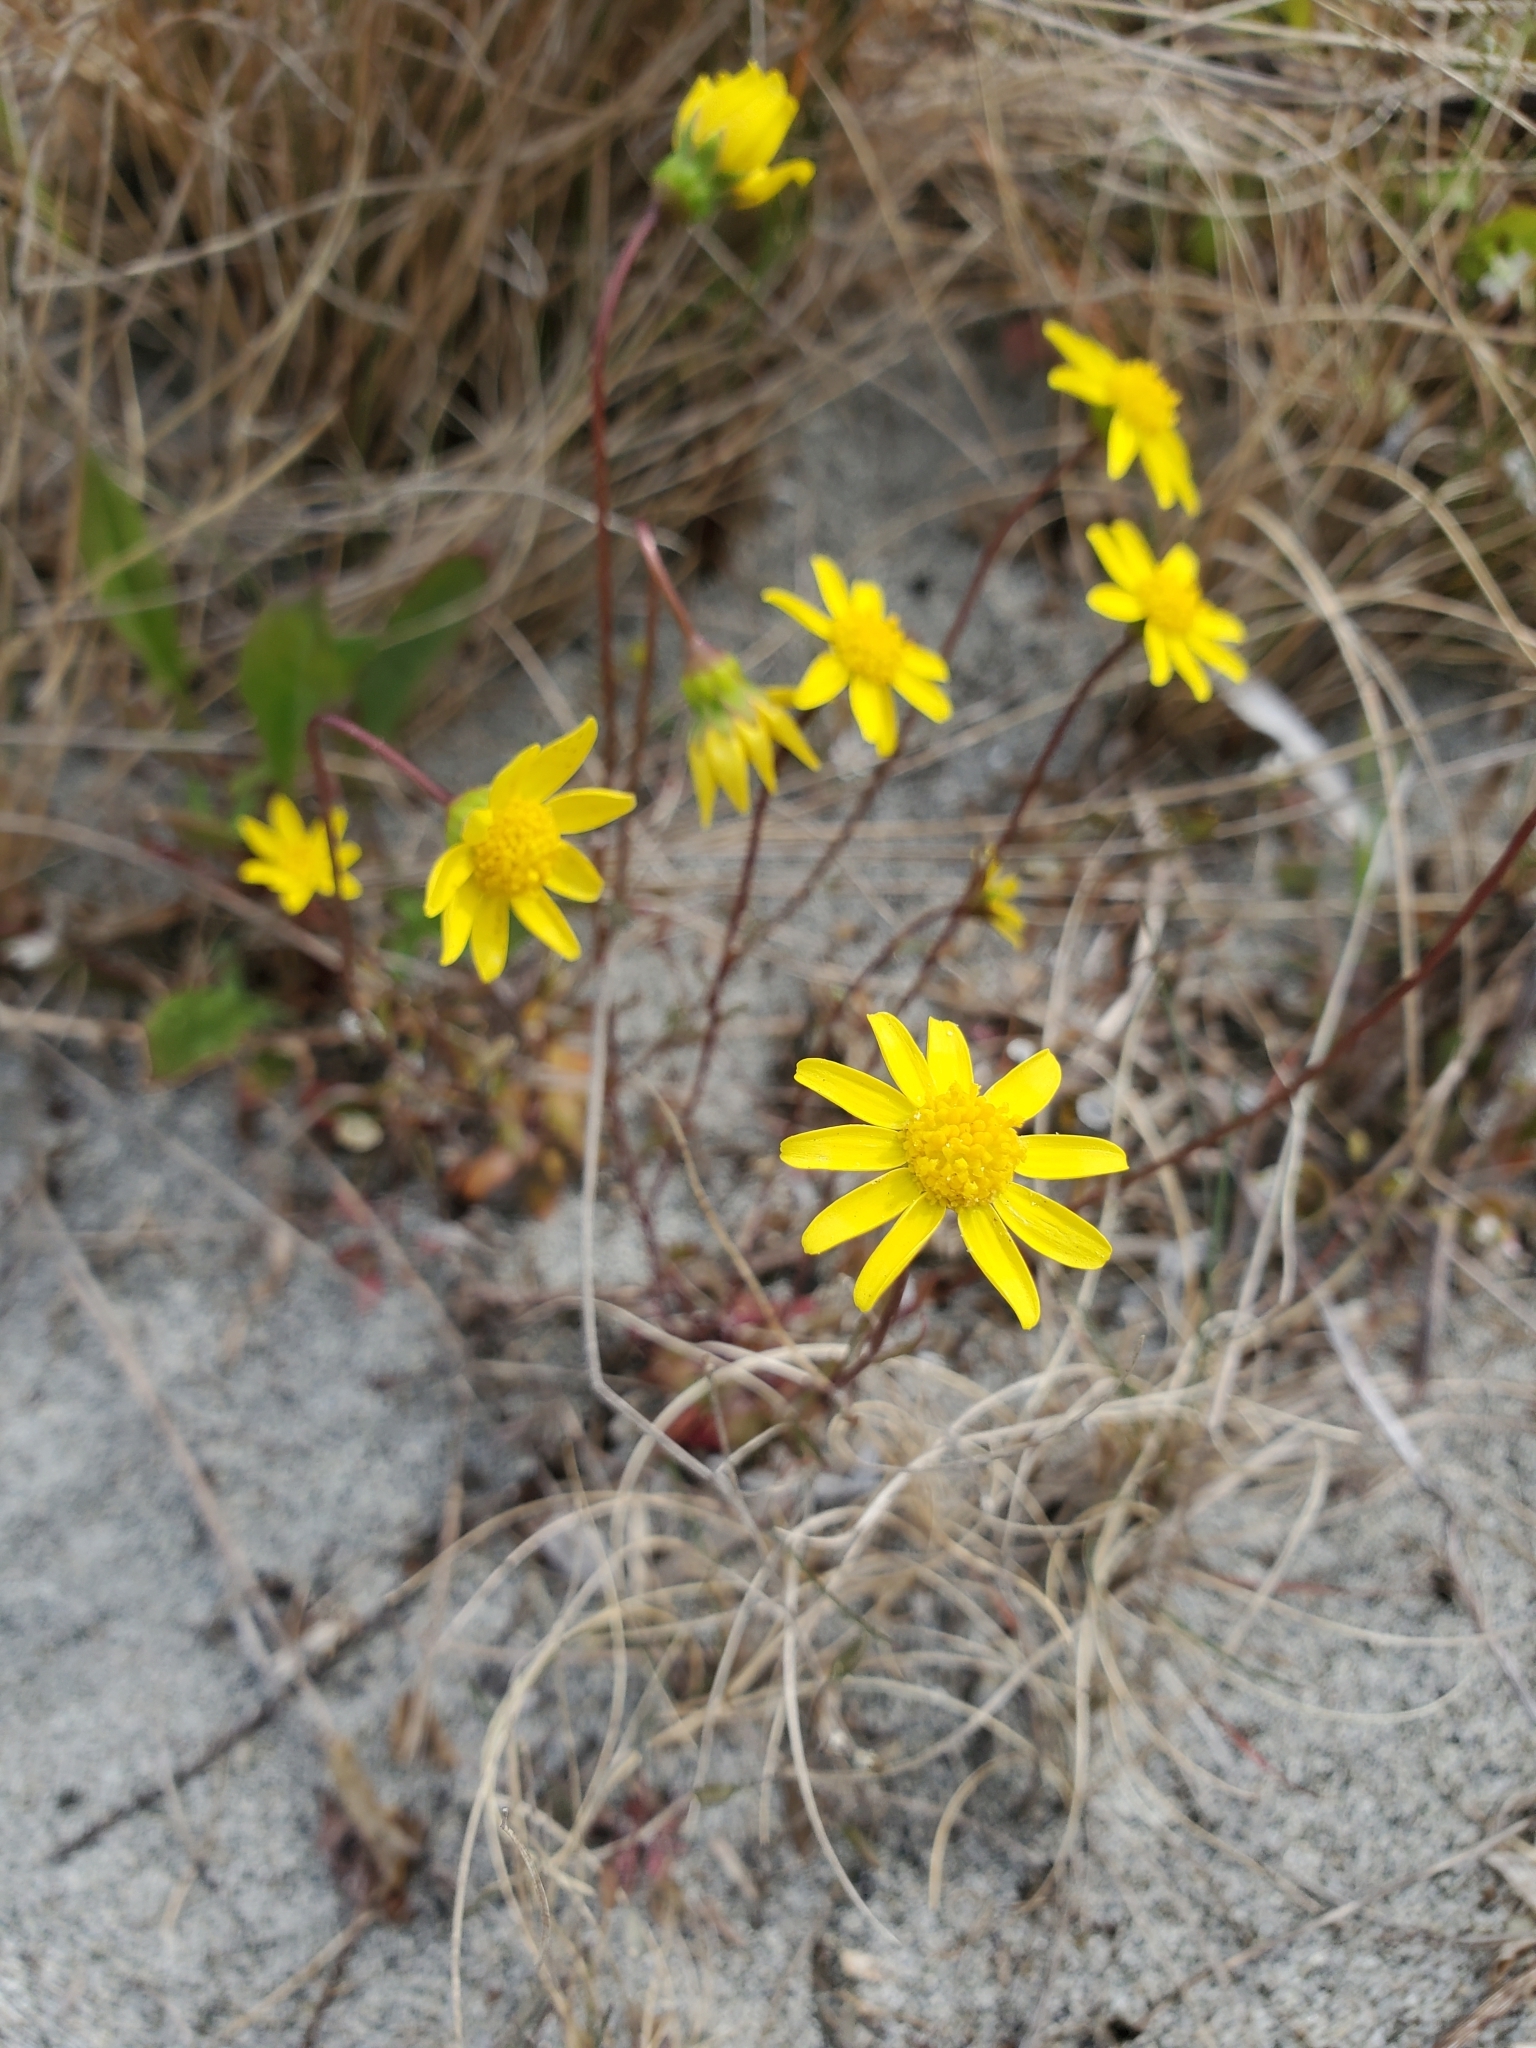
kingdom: Plantae
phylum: Tracheophyta
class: Magnoliopsida
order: Asterales
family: Asteraceae
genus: Crocidium
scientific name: Crocidium multicaule
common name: Common spring gold
